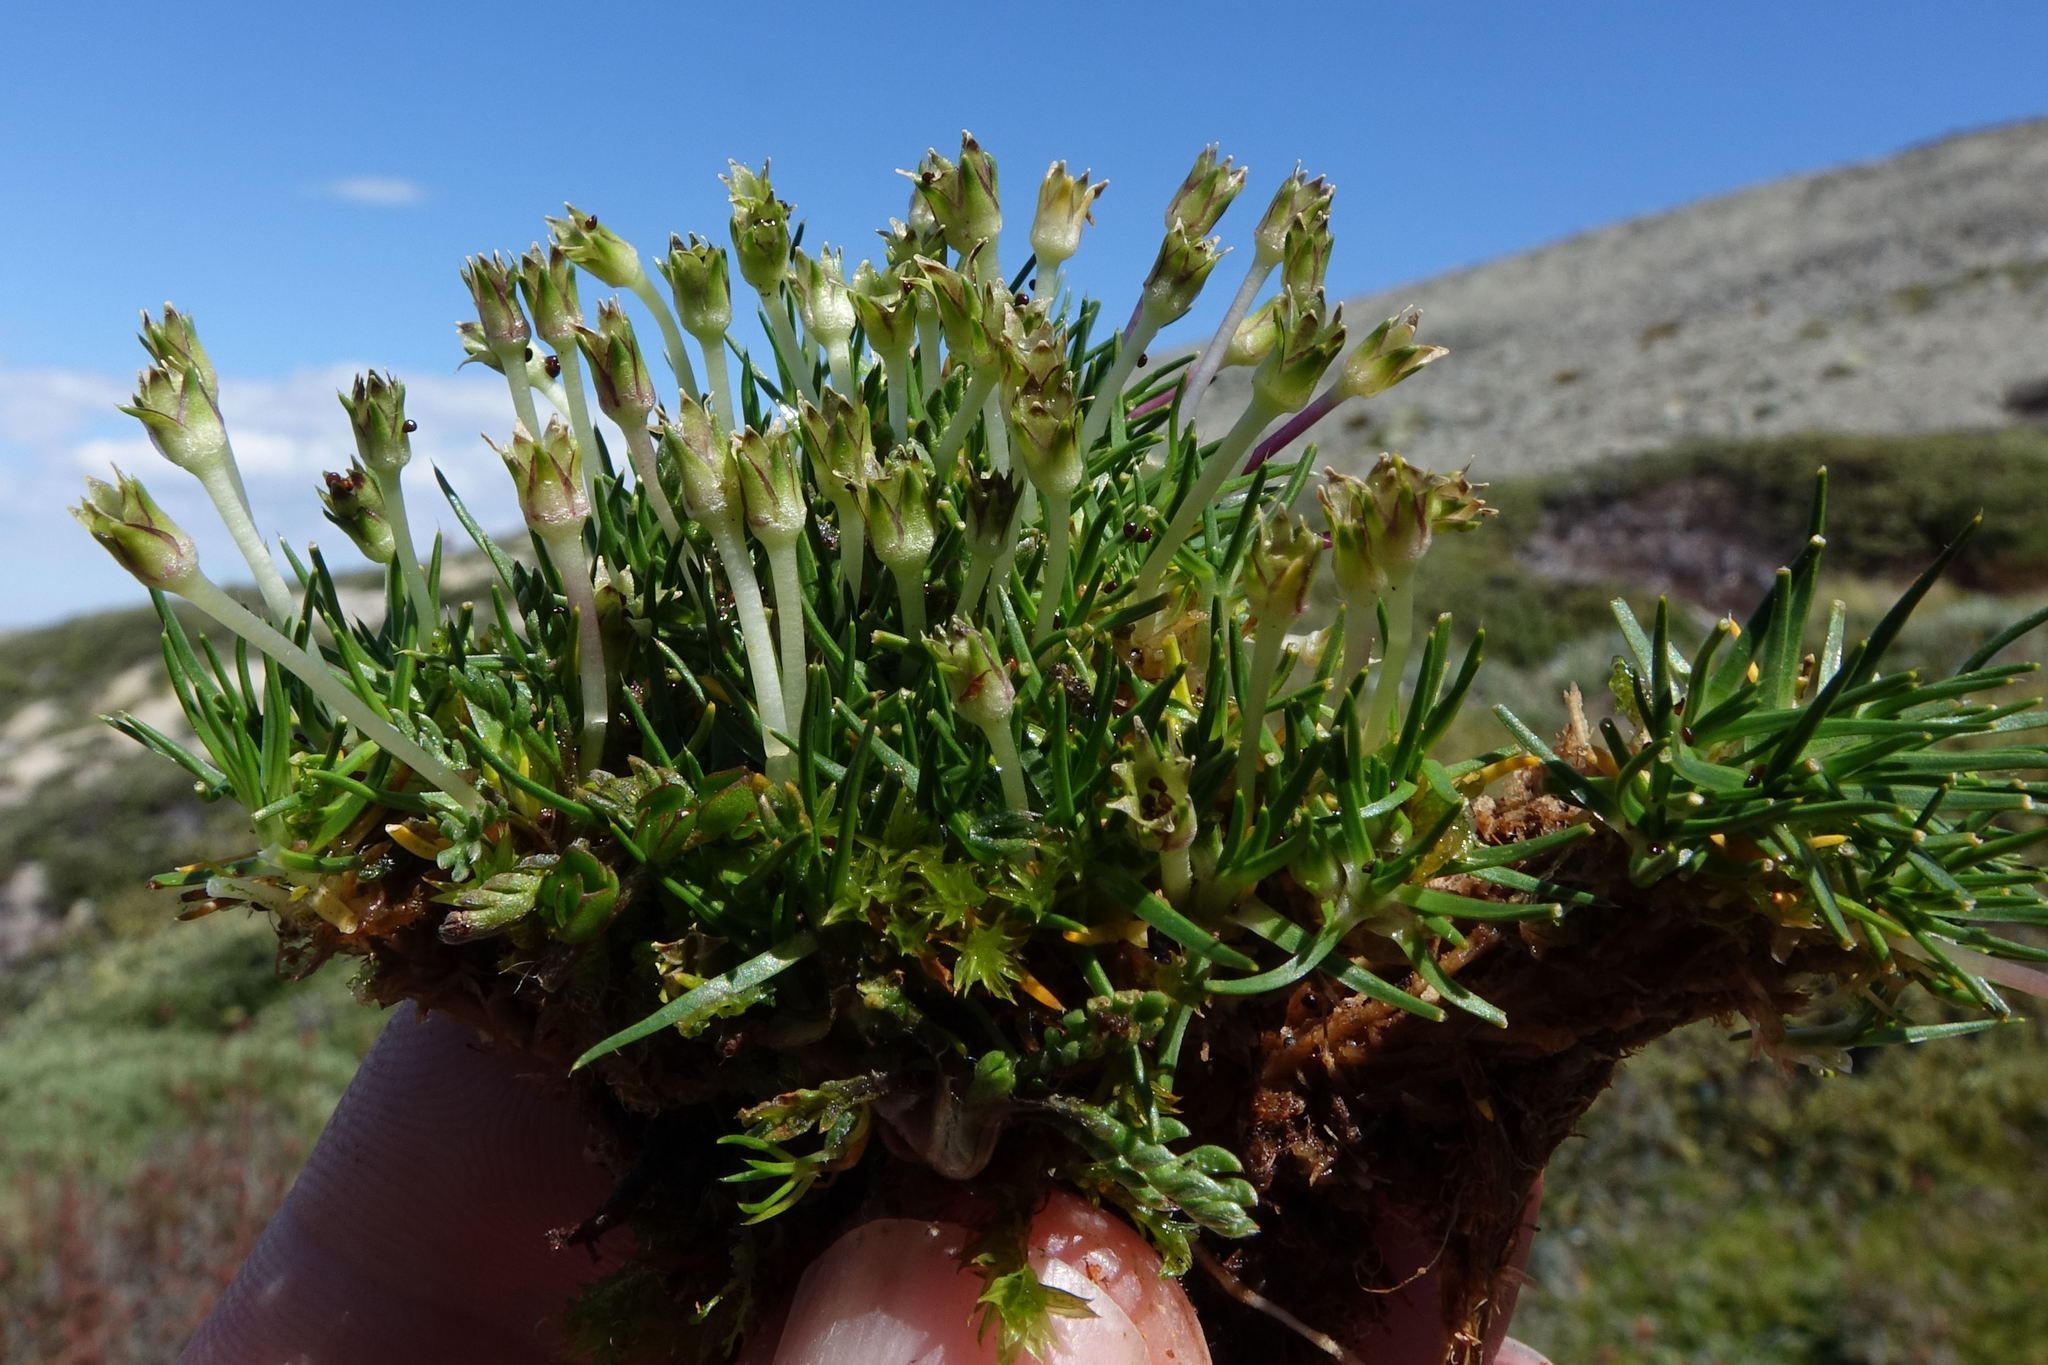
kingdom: Plantae
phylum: Tracheophyta
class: Magnoliopsida
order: Caryophyllales
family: Caryophyllaceae
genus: Colobanthus
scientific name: Colobanthus apetalus
